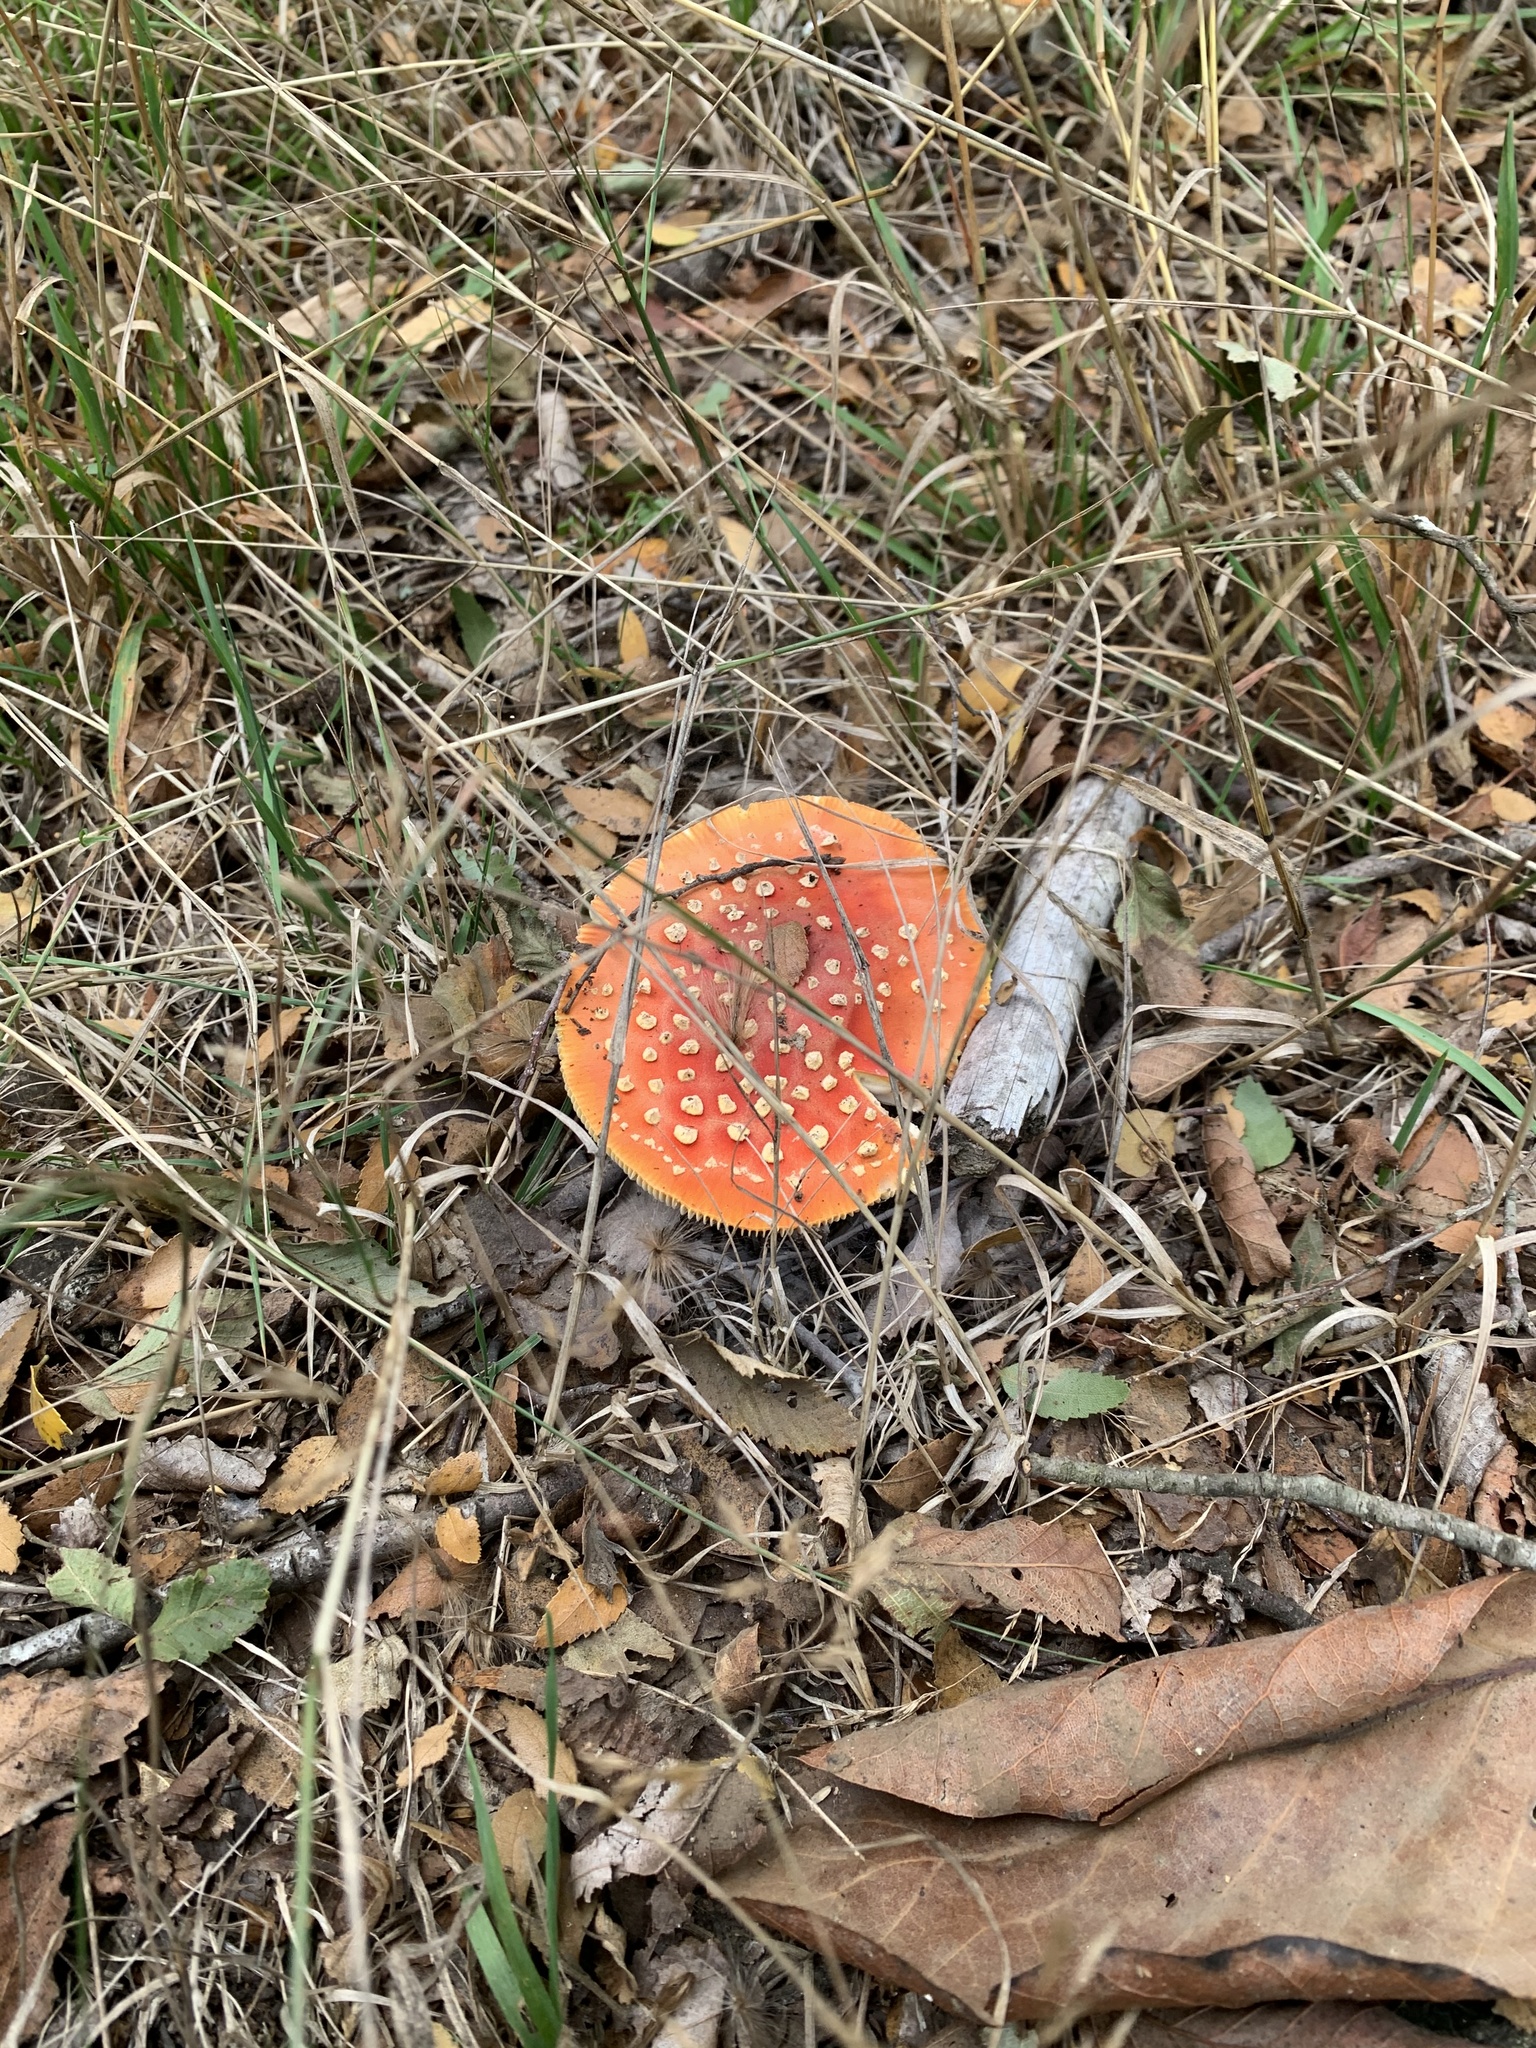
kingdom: Fungi
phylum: Basidiomycota
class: Agaricomycetes
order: Agaricales
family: Amanitaceae
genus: Amanita
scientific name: Amanita muscaria
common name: Fly agaric
